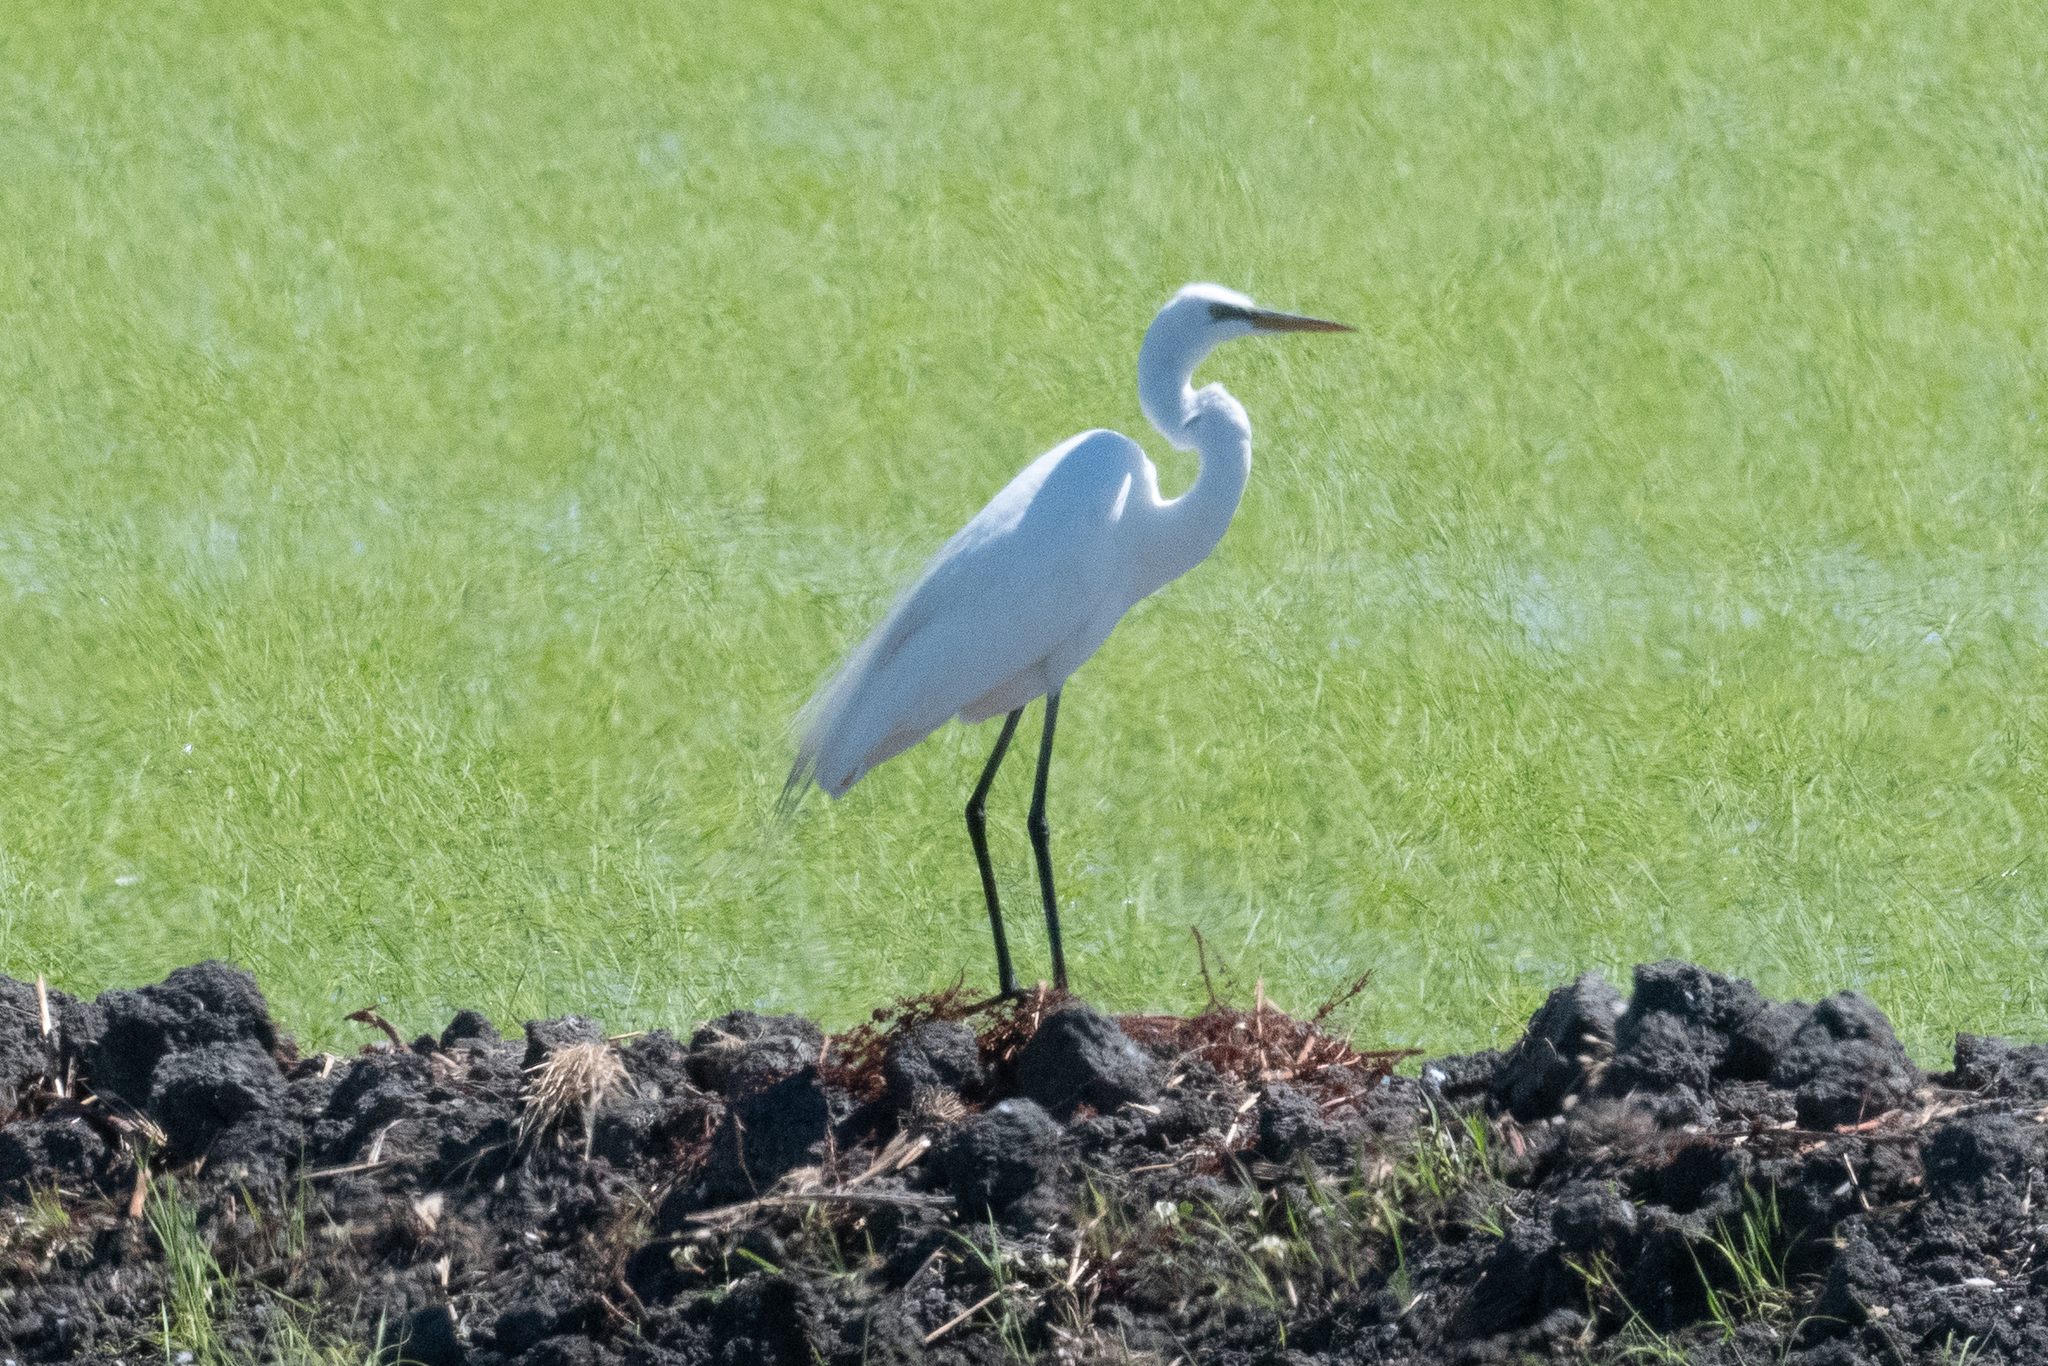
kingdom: Animalia
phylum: Chordata
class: Aves
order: Pelecaniformes
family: Ardeidae
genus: Ardea
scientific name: Ardea alba
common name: Great egret
